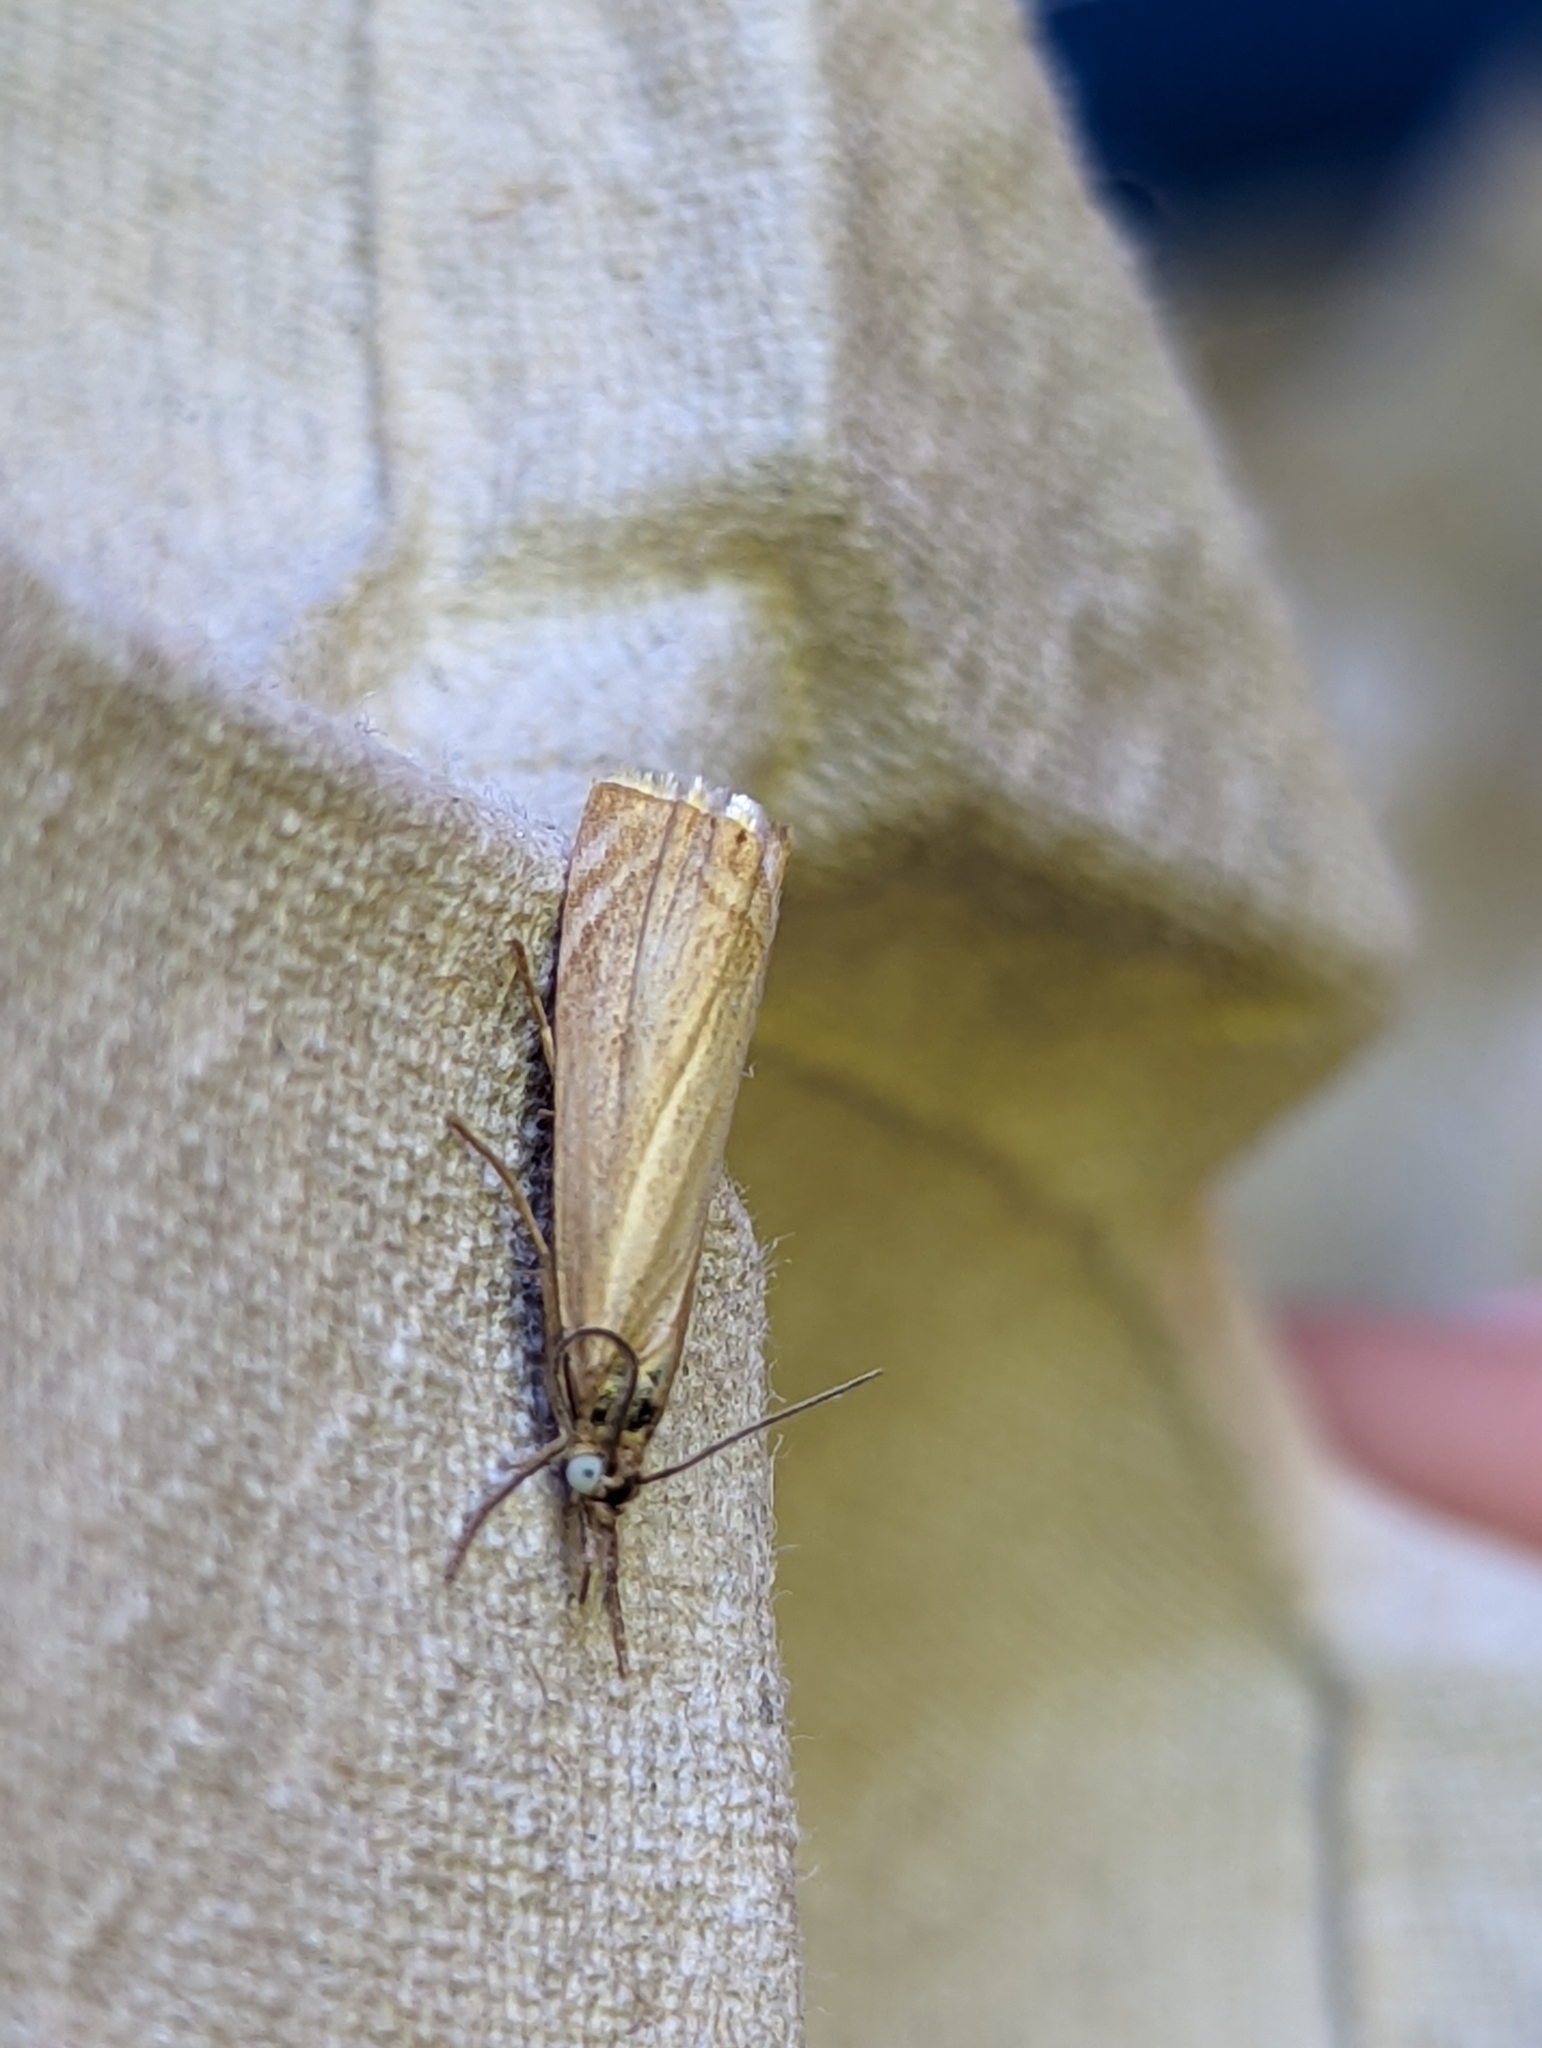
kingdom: Animalia
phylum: Arthropoda
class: Insecta
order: Lepidoptera
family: Crambidae
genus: Chrysoteuchia
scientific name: Chrysoteuchia culmella
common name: Garden grass-veneer
